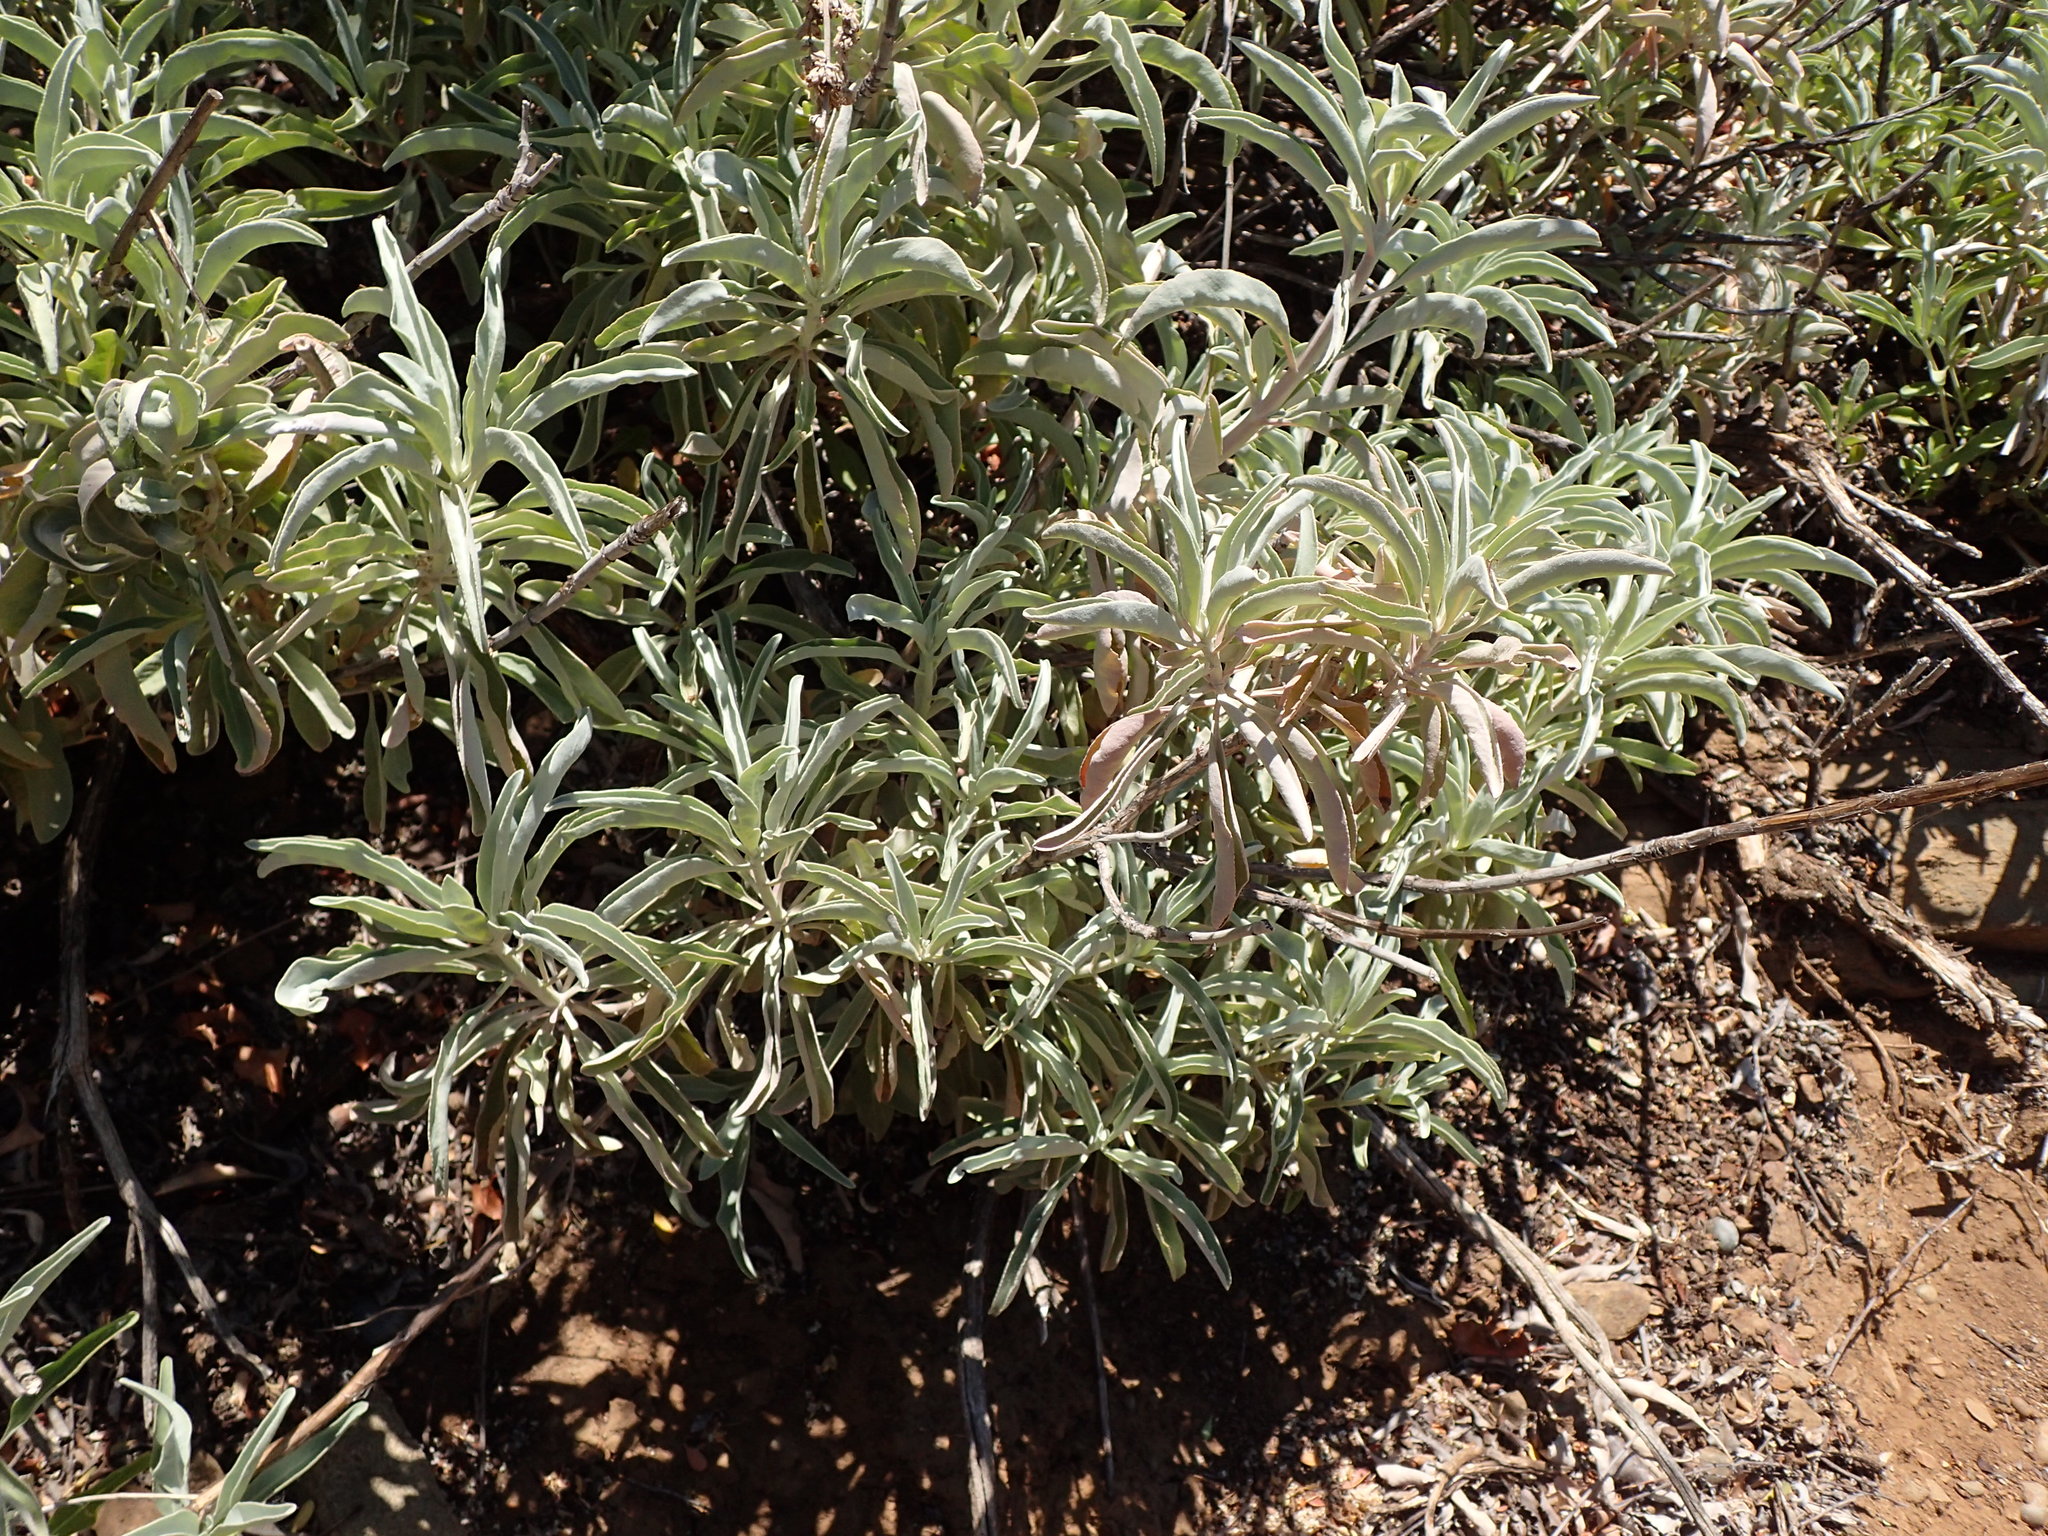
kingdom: Plantae
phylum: Tracheophyta
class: Magnoliopsida
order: Lamiales
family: Lamiaceae
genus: Salvia
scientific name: Salvia apiana
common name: White sage
